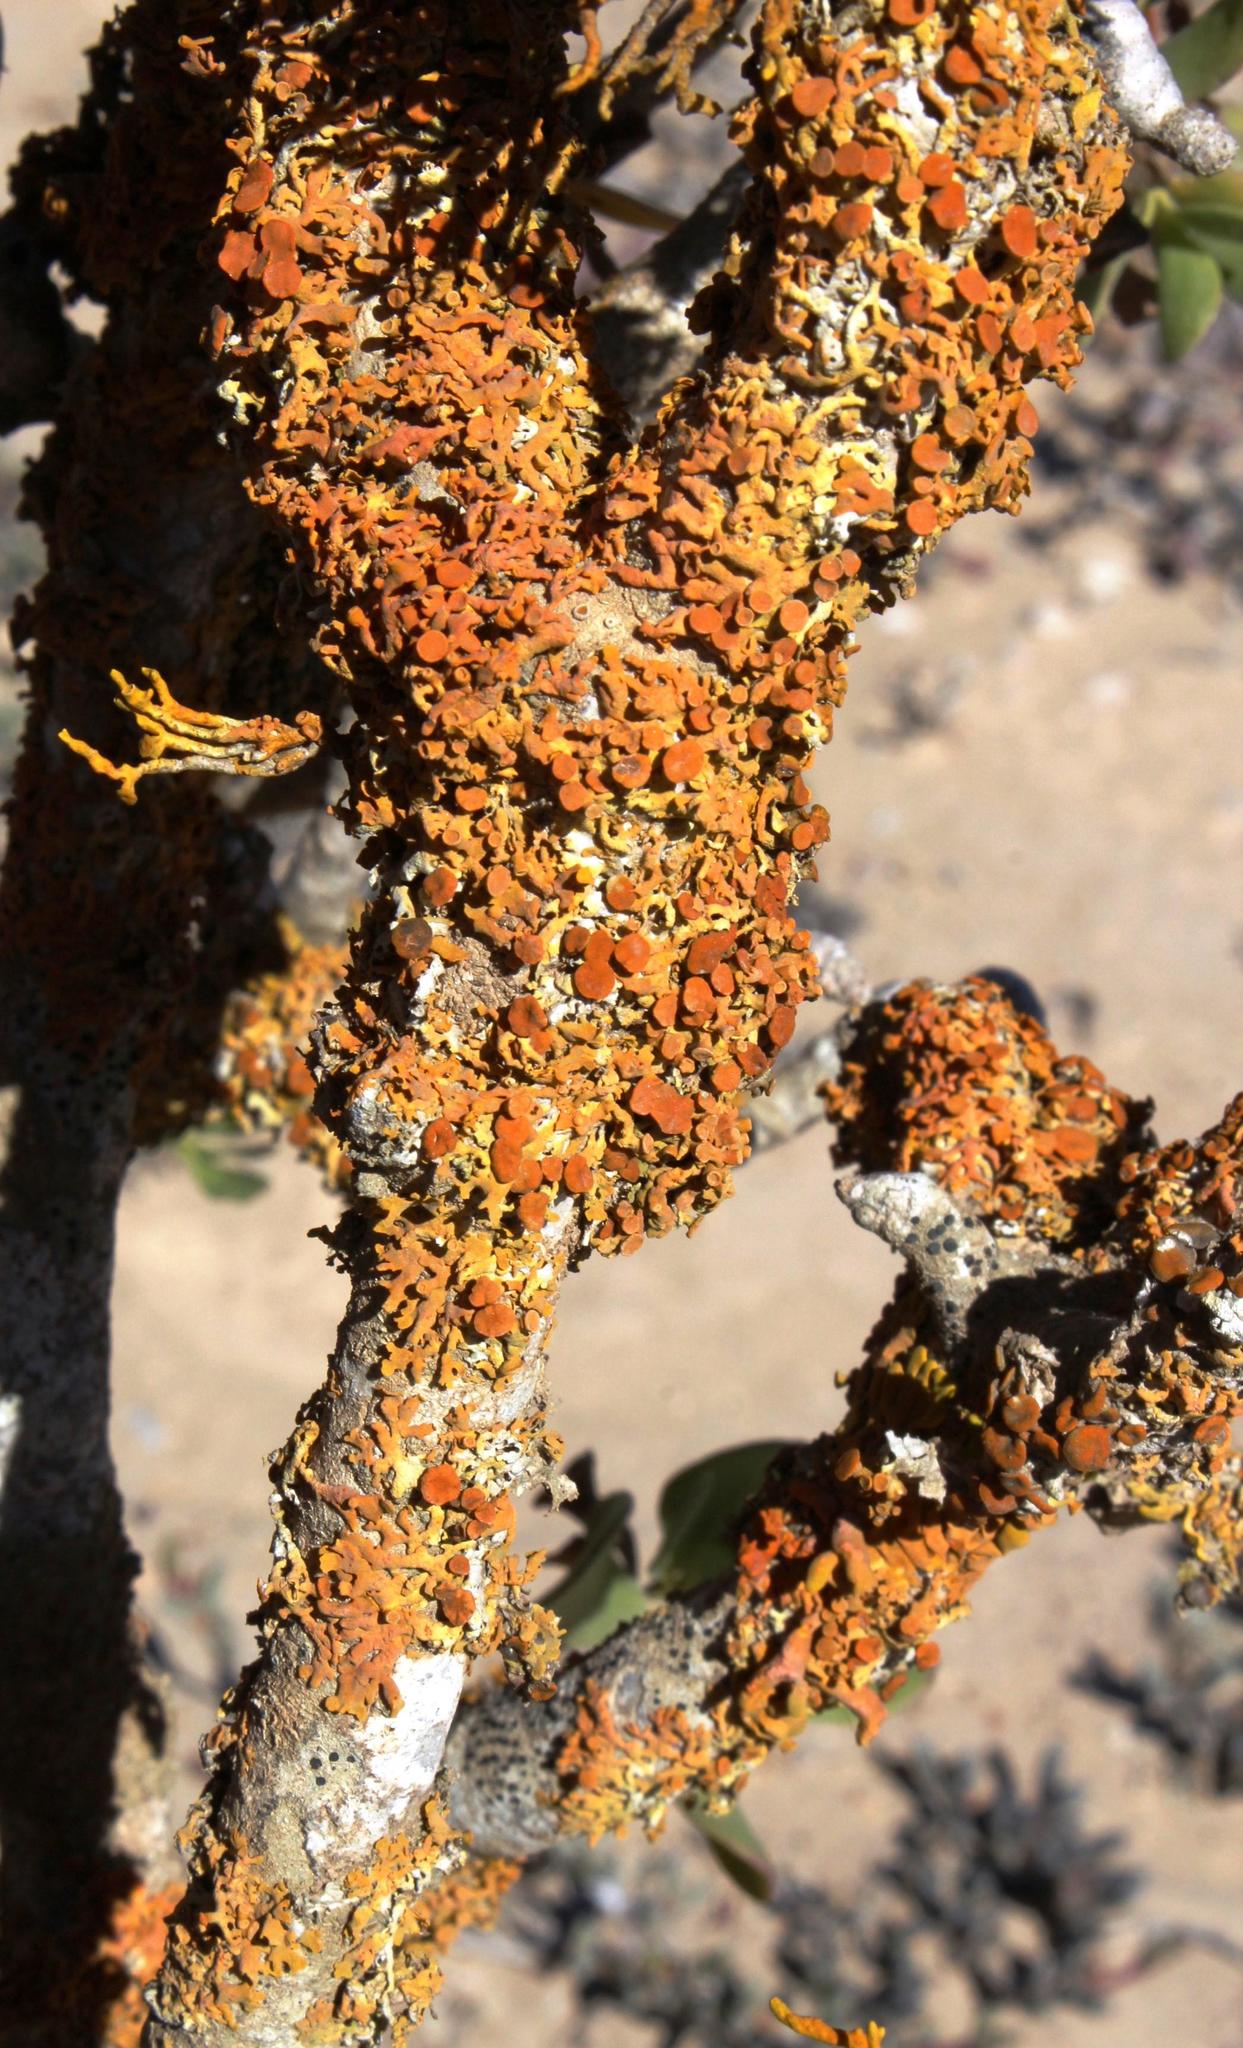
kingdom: Fungi
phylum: Ascomycota
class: Lecanoromycetes
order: Teloschistales
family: Teloschistaceae
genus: Dufourea
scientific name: Dufourea turbinata
